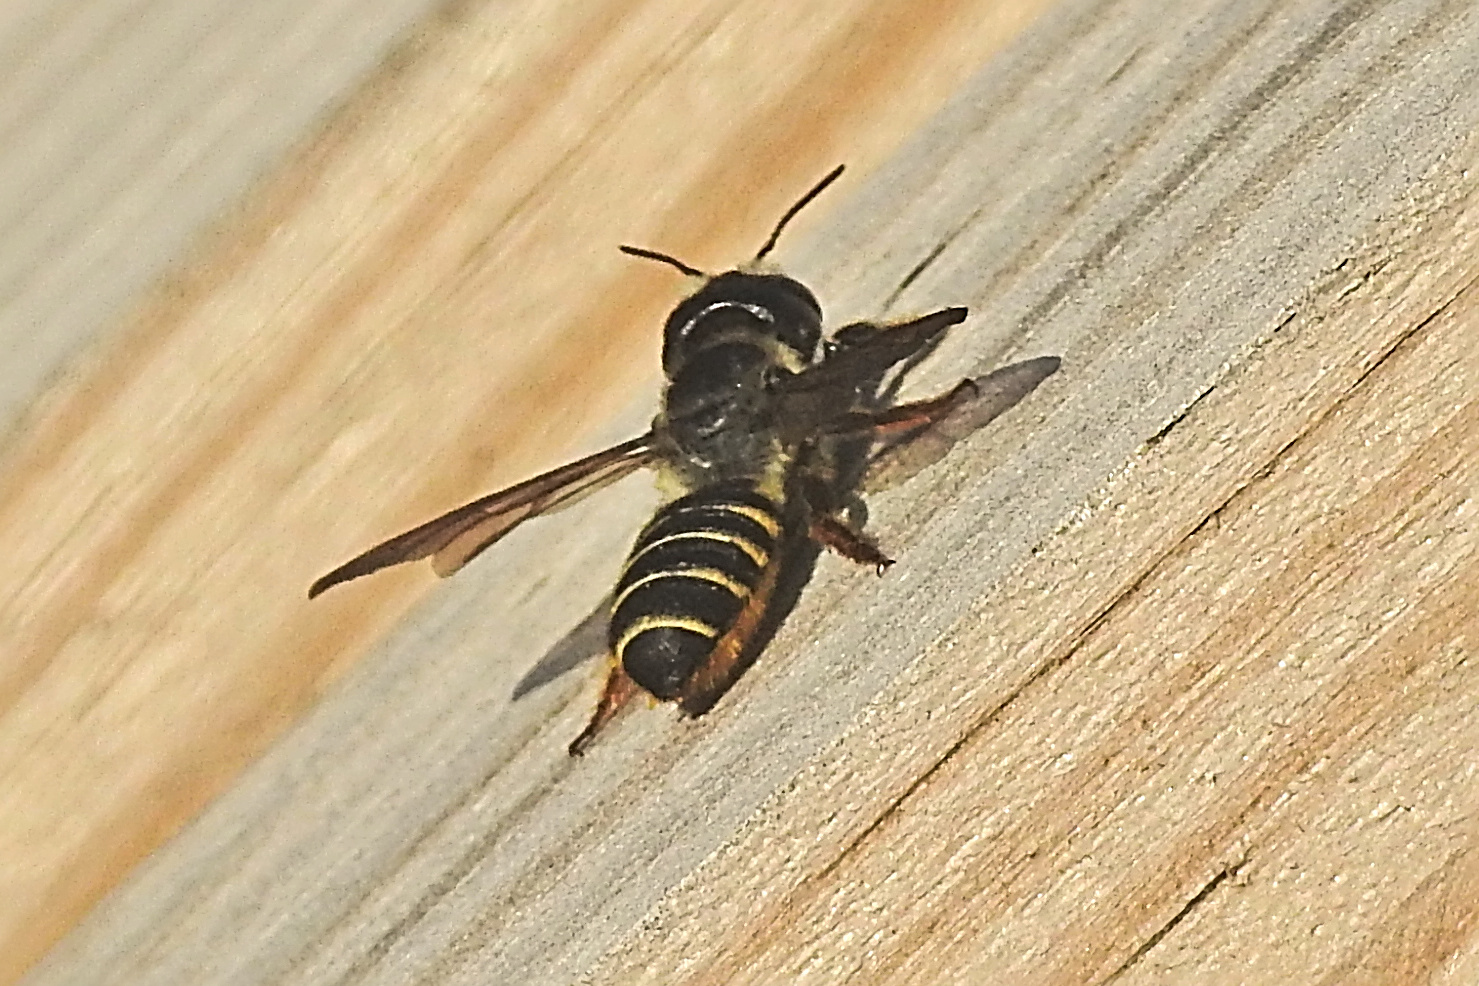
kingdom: Animalia
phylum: Arthropoda
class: Insecta
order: Hymenoptera
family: Megachilidae
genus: Megachile
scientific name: Megachile pugnata
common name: Pugnacious leafcutter bee
